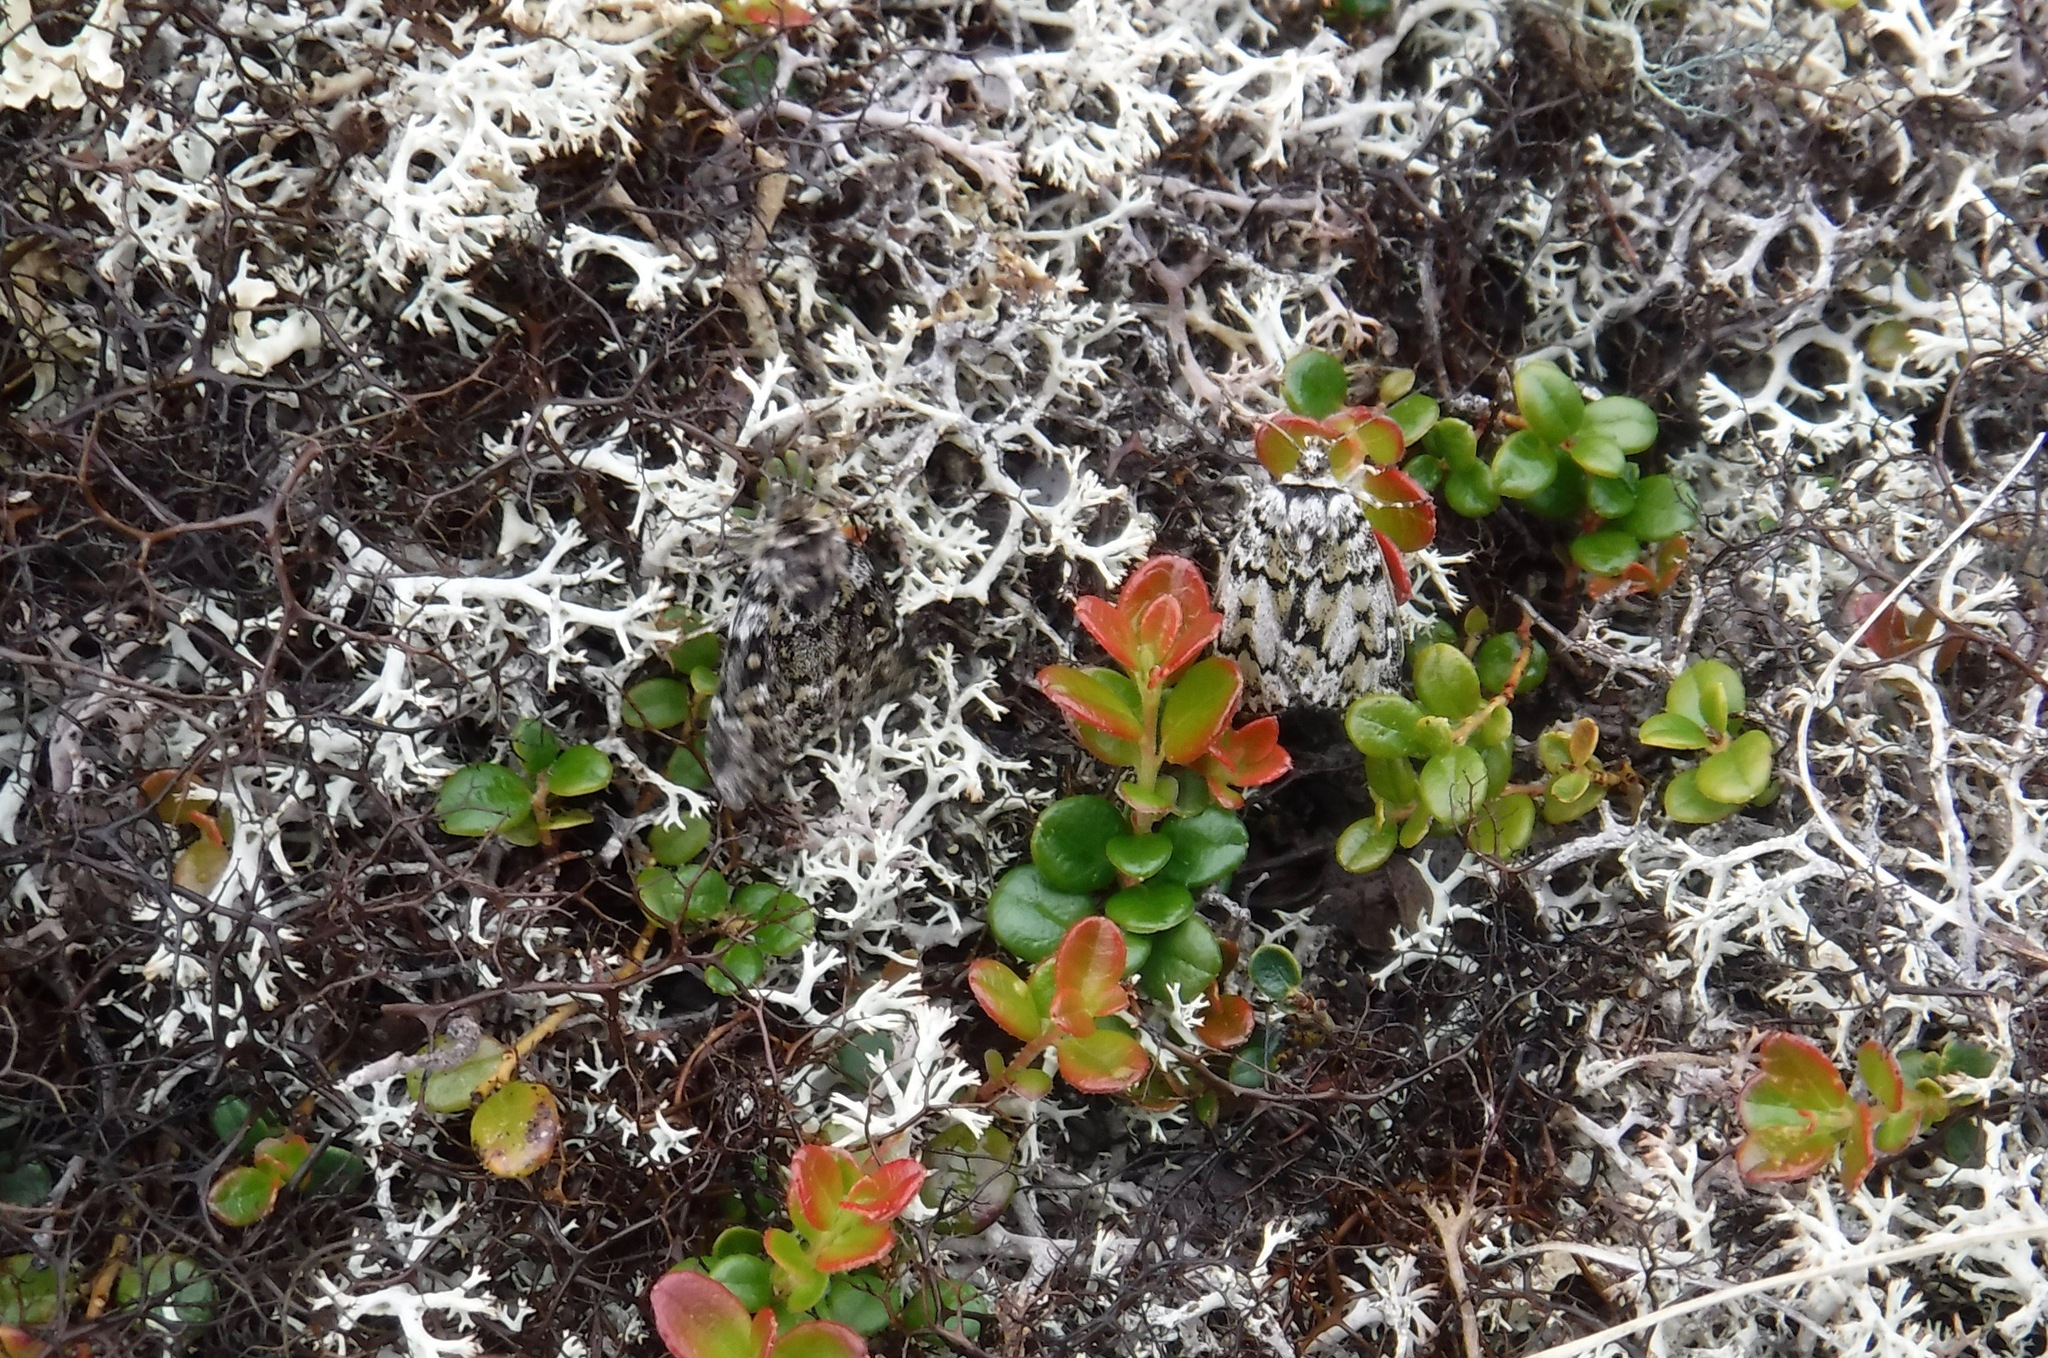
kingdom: Animalia
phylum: Arthropoda
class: Insecta
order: Lepidoptera
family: Noctuidae
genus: Xestia
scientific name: Xestia quieta
